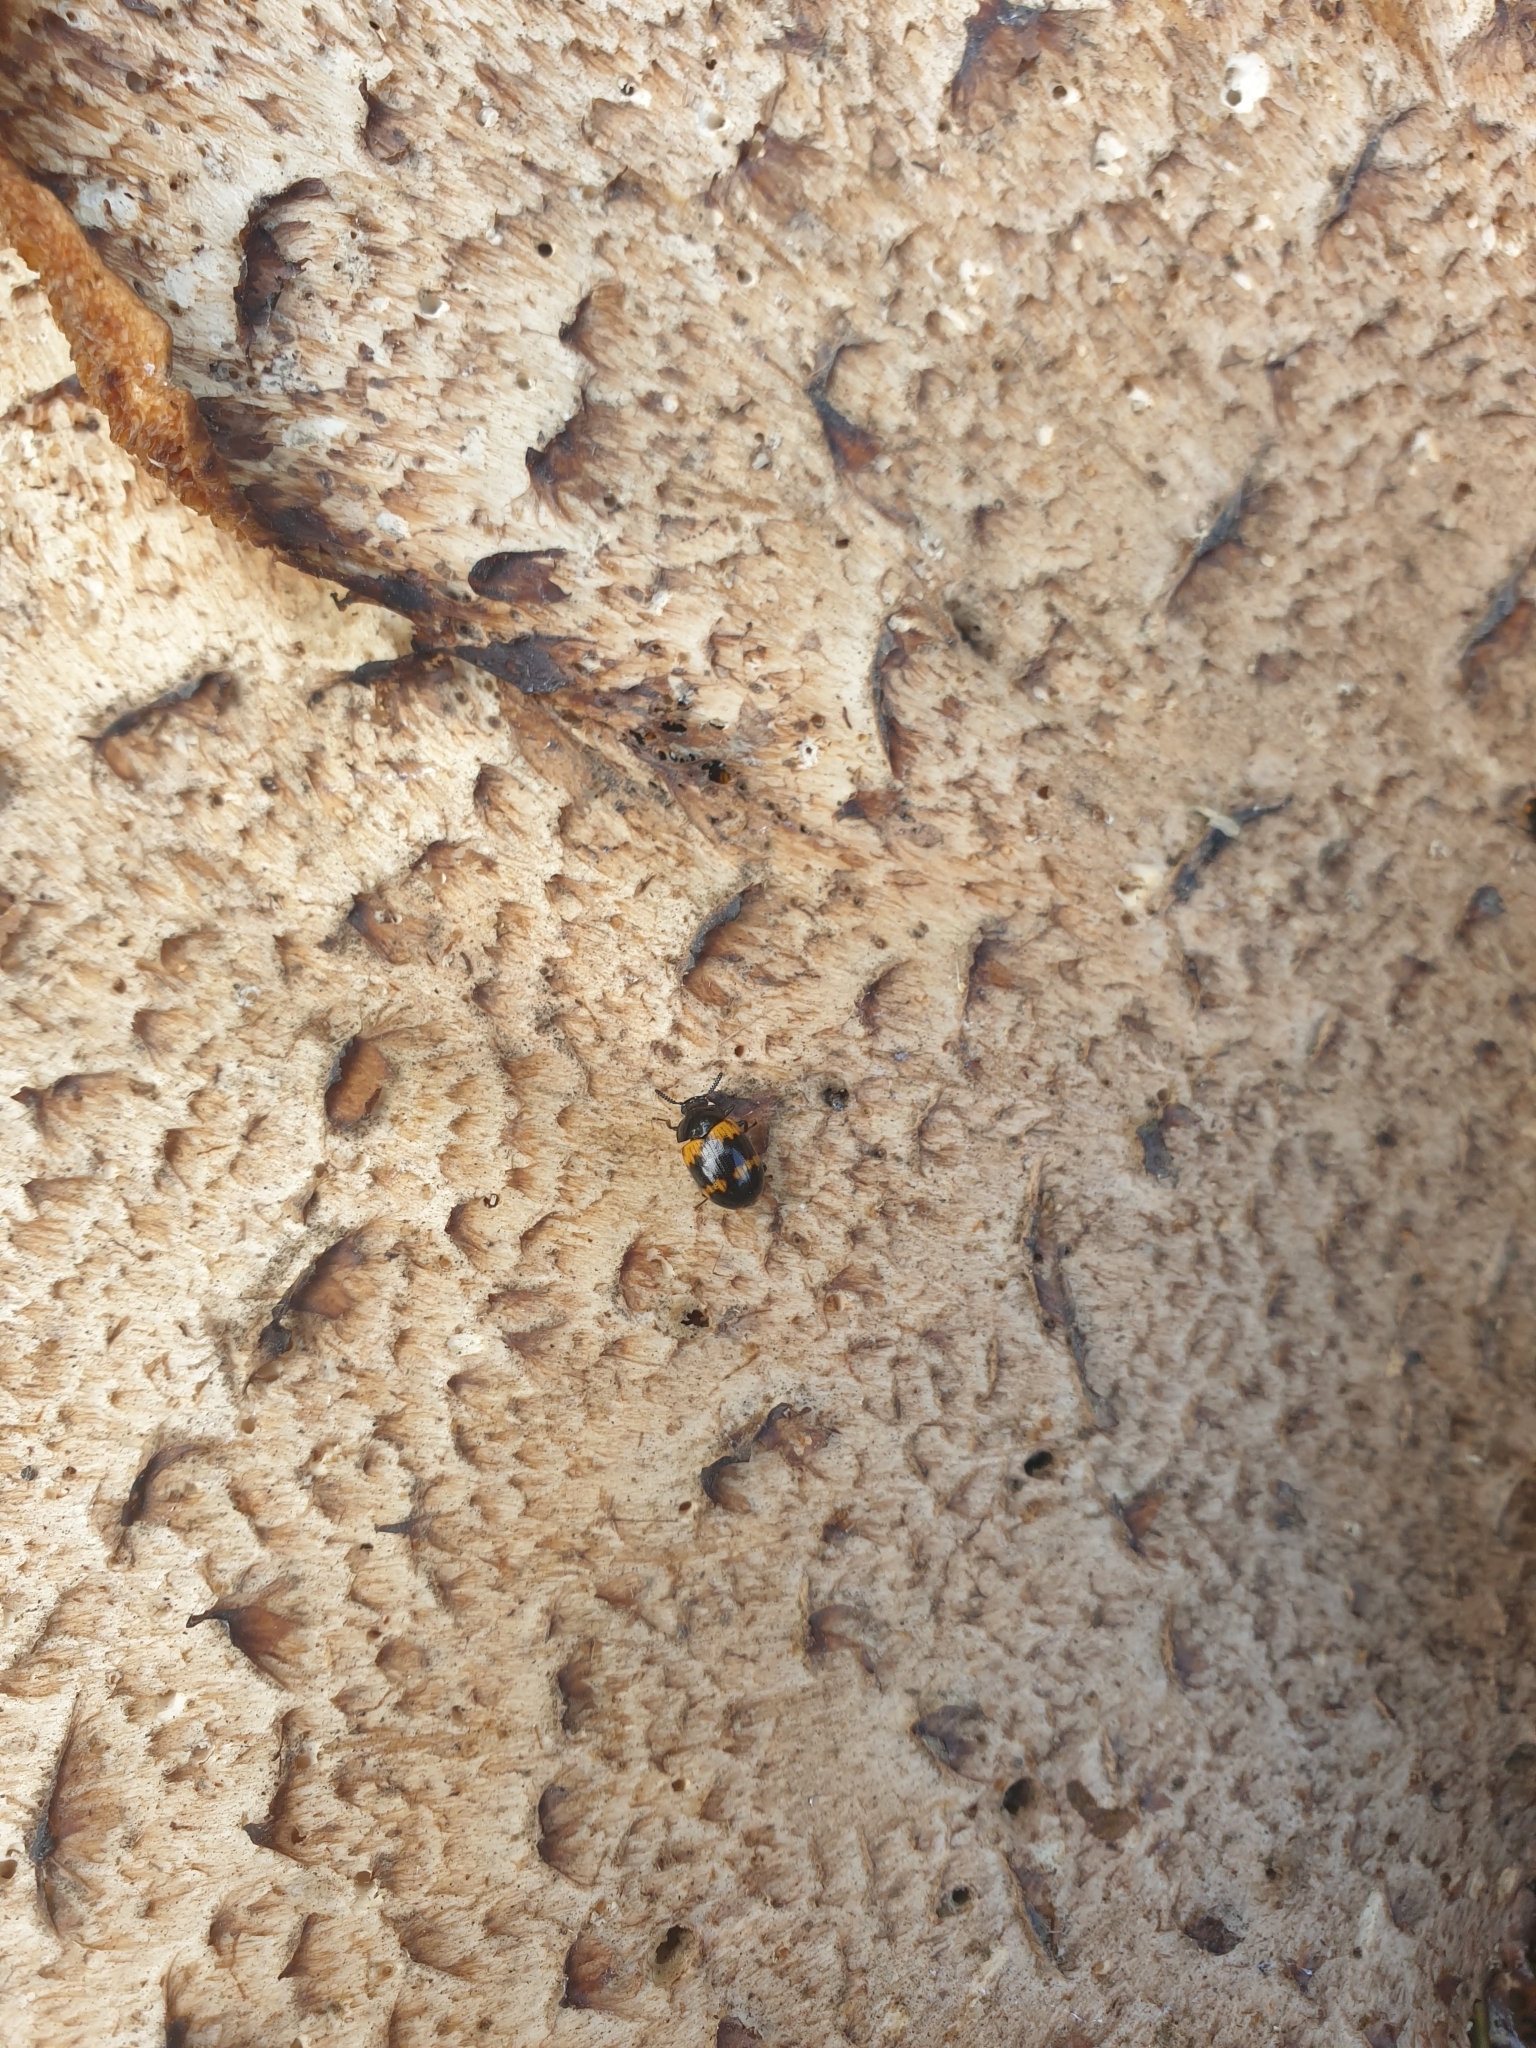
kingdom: Animalia
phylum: Arthropoda
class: Insecta
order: Coleoptera
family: Tenebrionidae
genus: Diaperis
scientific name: Diaperis boleti
